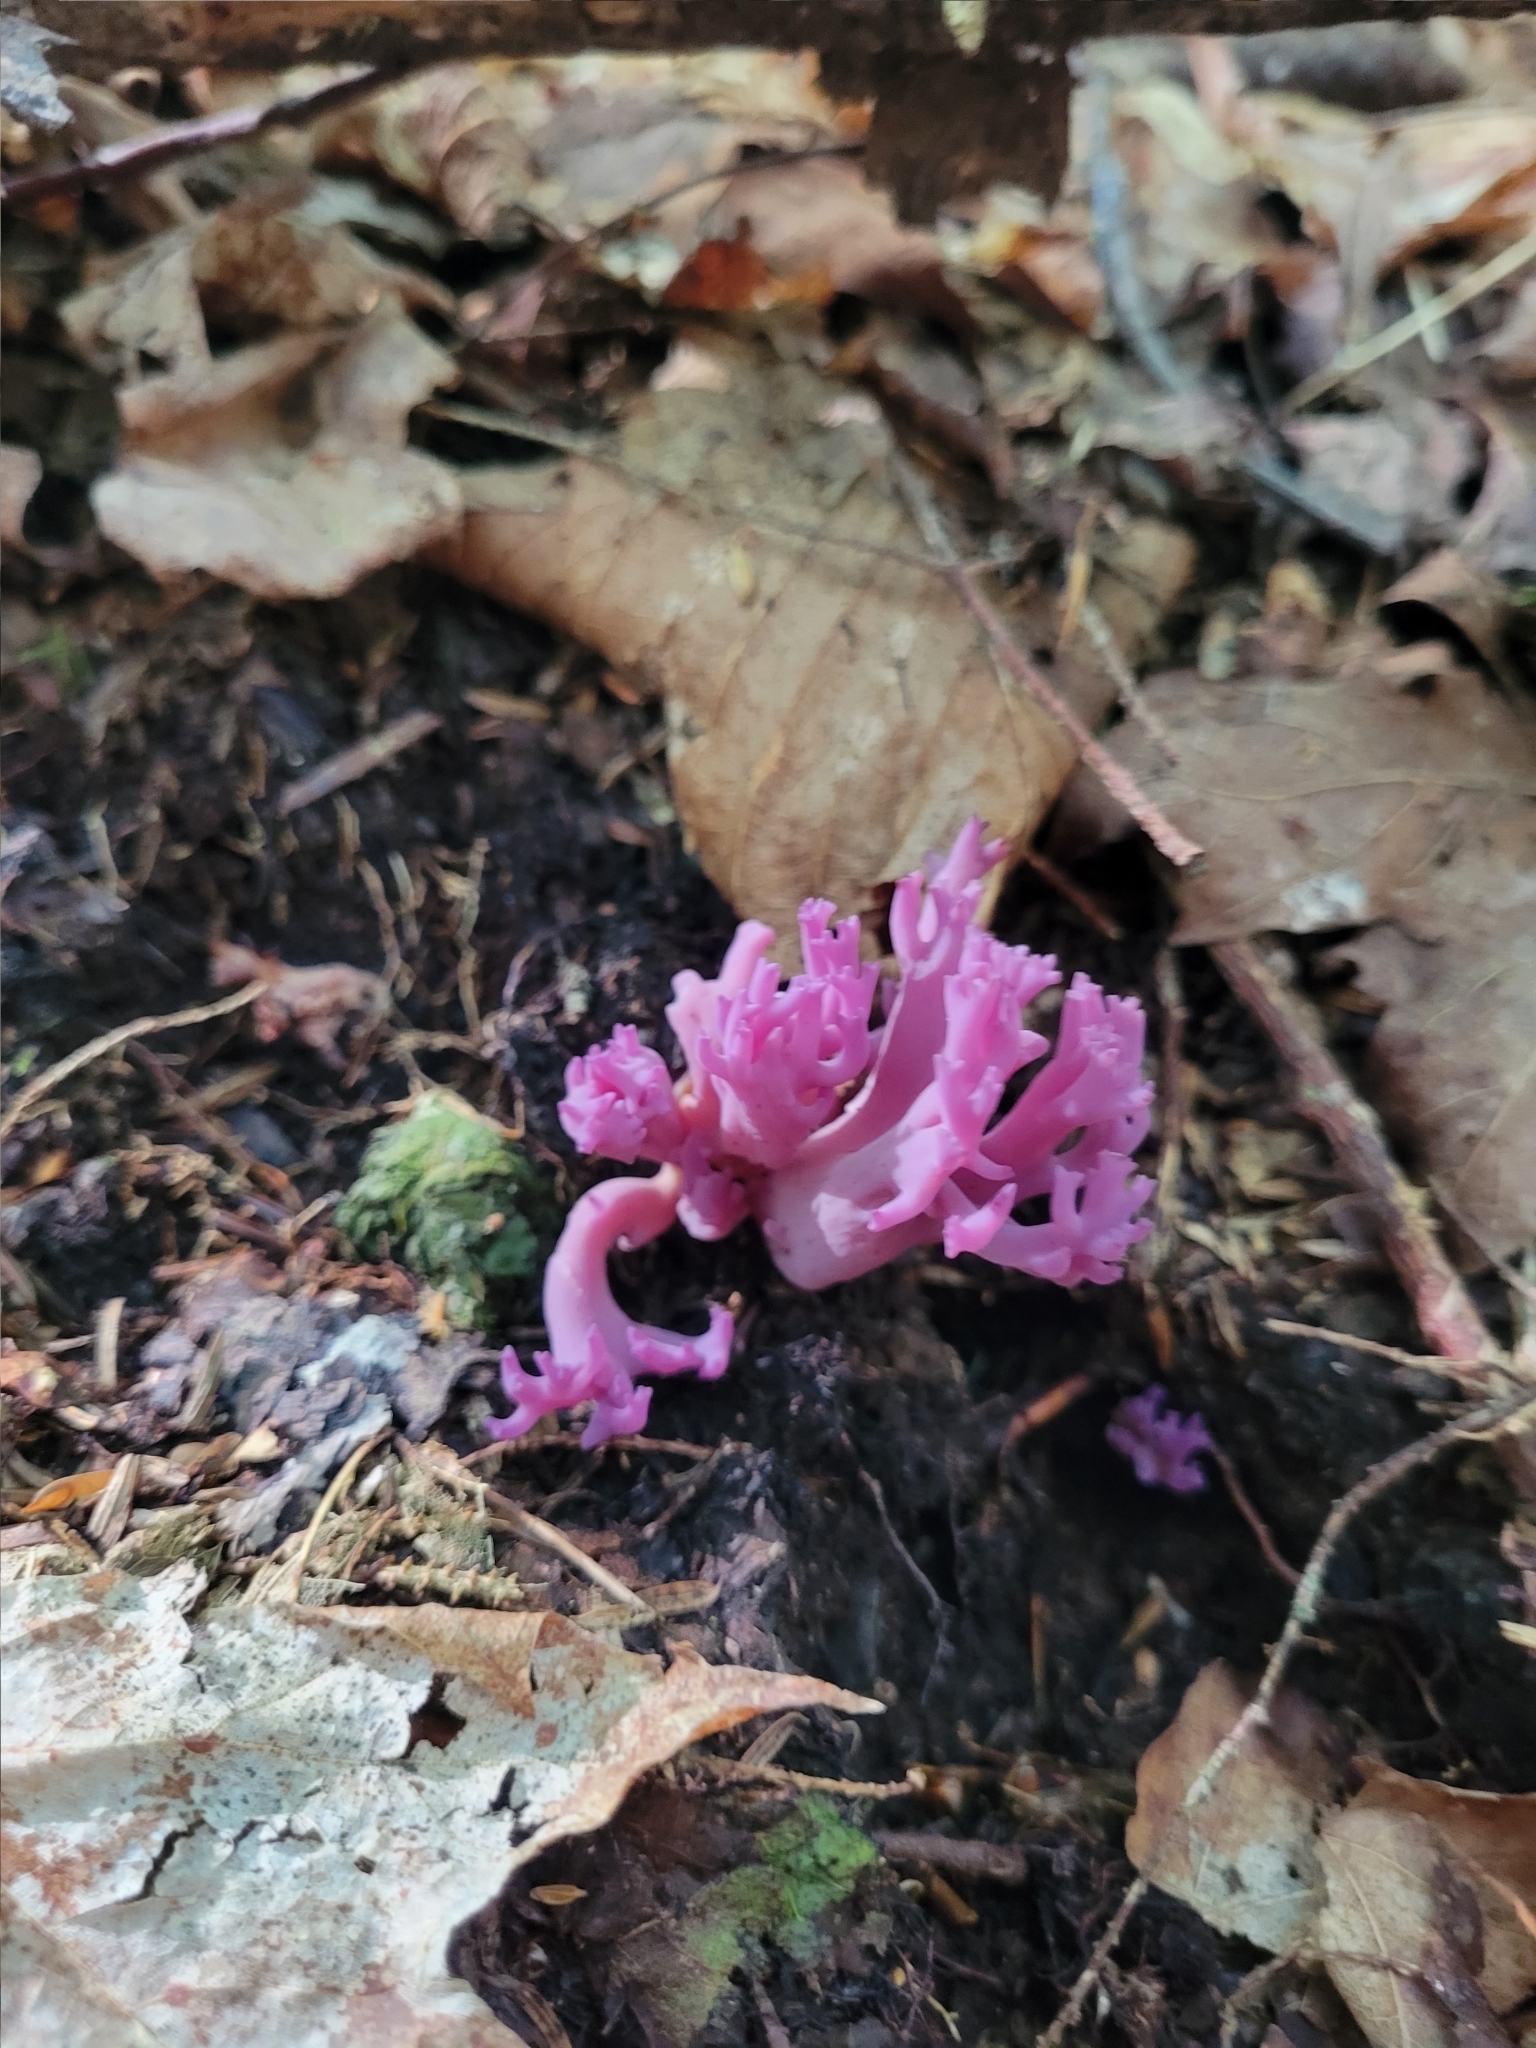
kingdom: Fungi
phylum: Basidiomycota
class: Agaricomycetes
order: Agaricales
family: Clavariaceae
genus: Clavaria
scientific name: Clavaria zollingeri
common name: Violet coral
